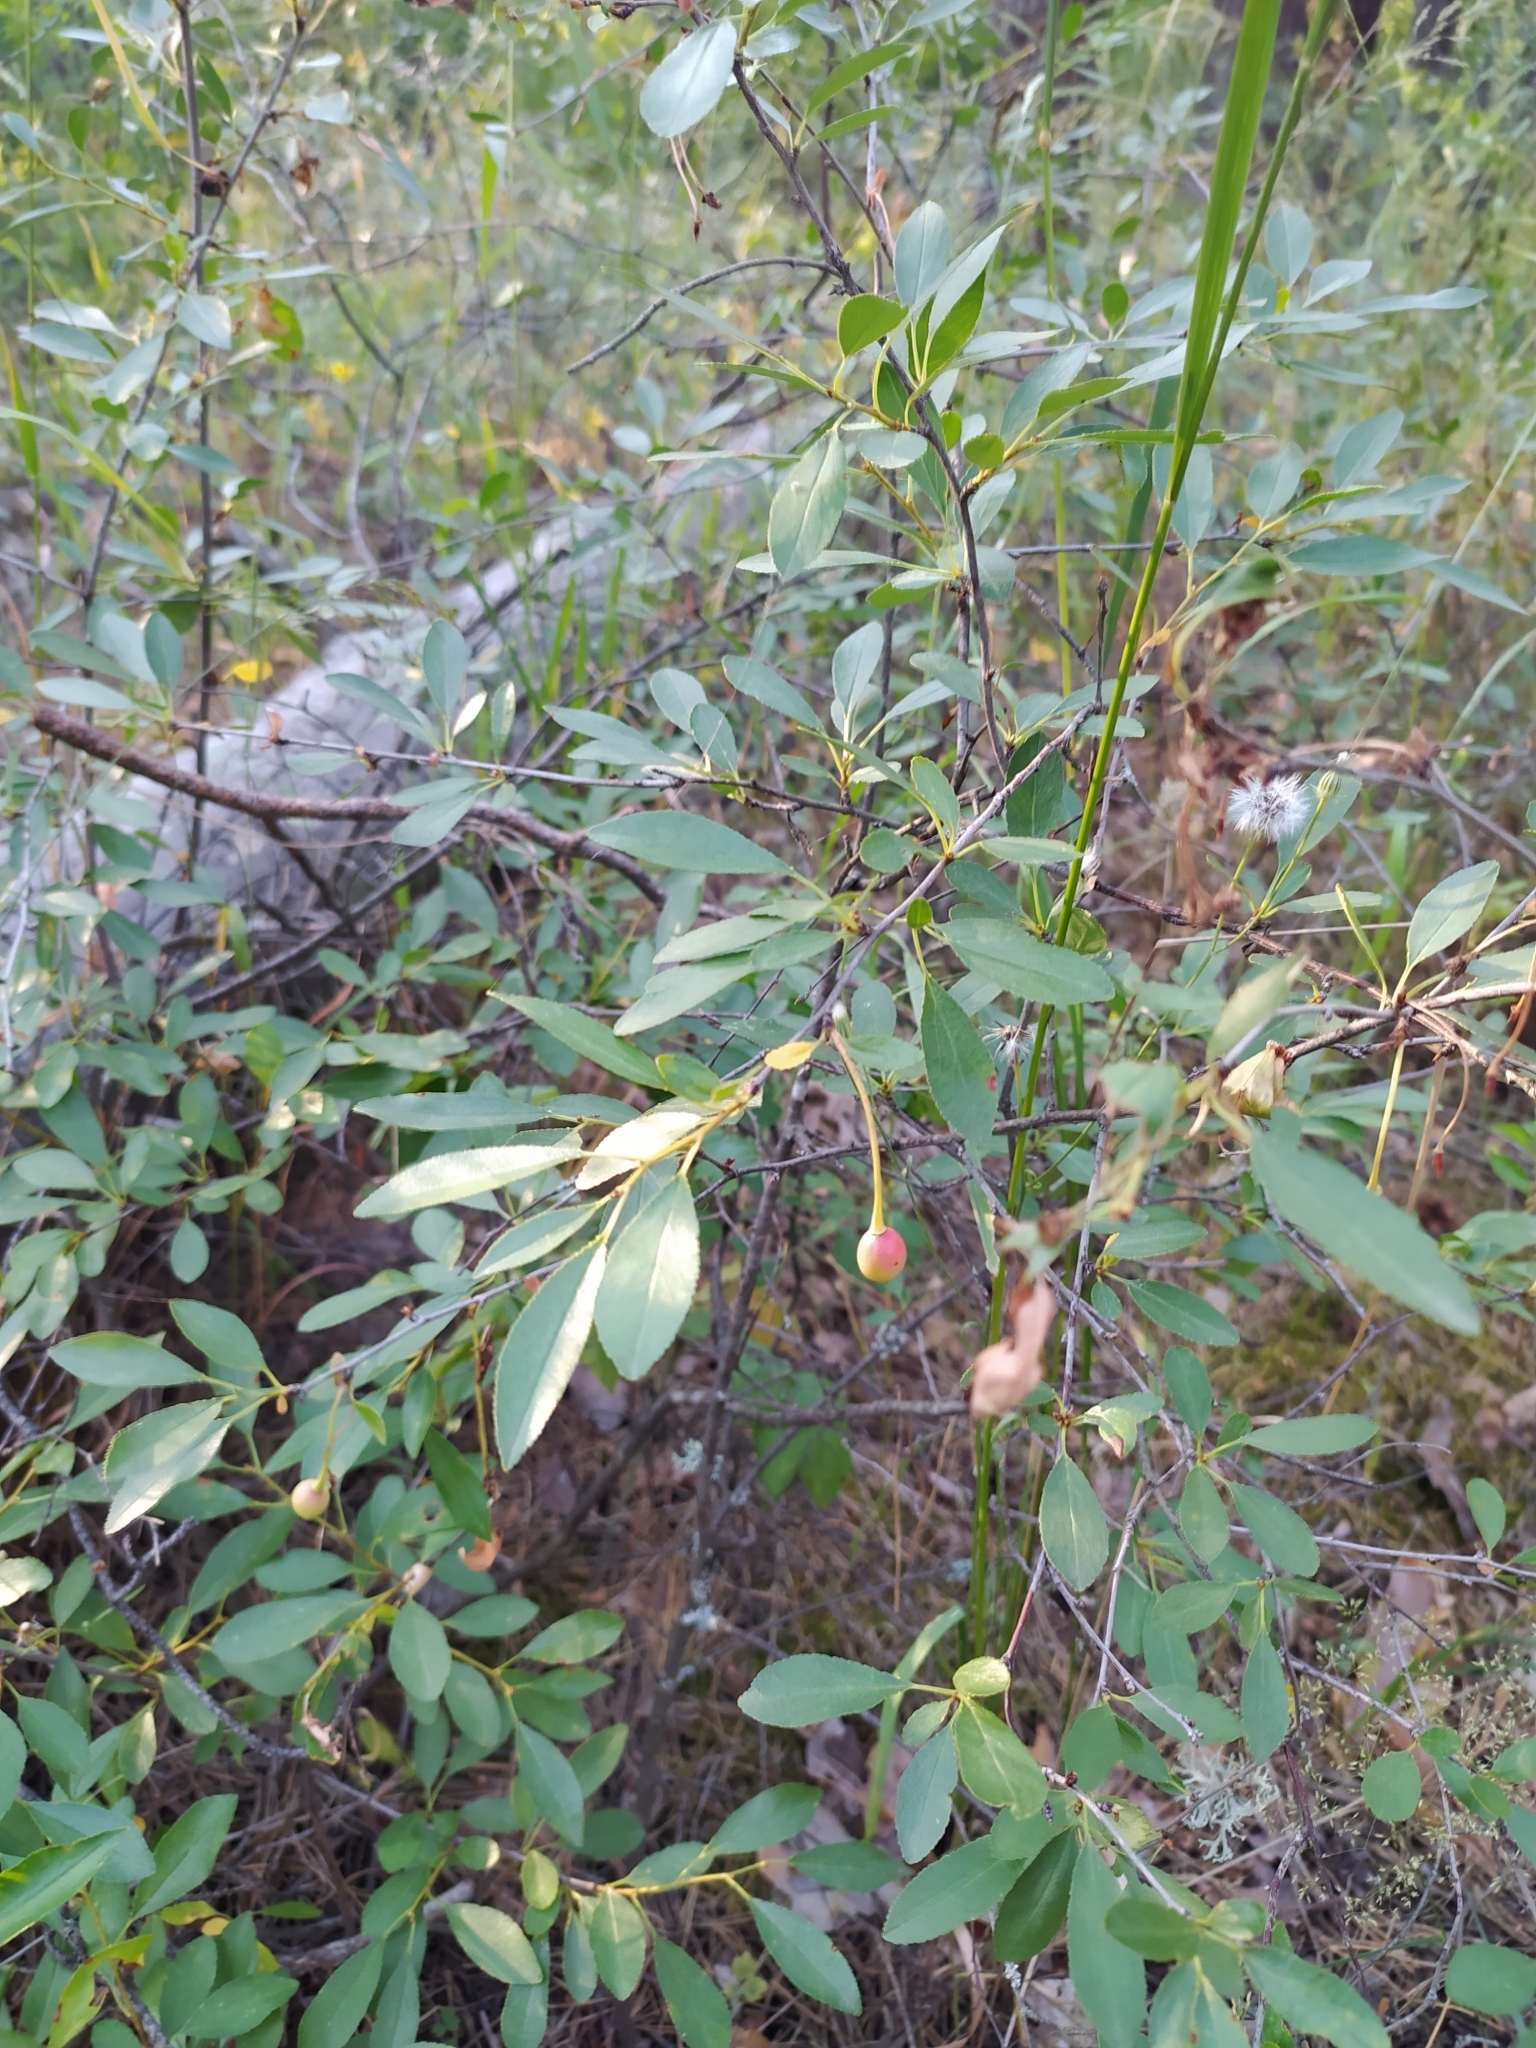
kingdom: Plantae
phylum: Tracheophyta
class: Magnoliopsida
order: Rosales
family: Rosaceae
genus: Prunus
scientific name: Prunus fruticosa
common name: European dwarf cherry
